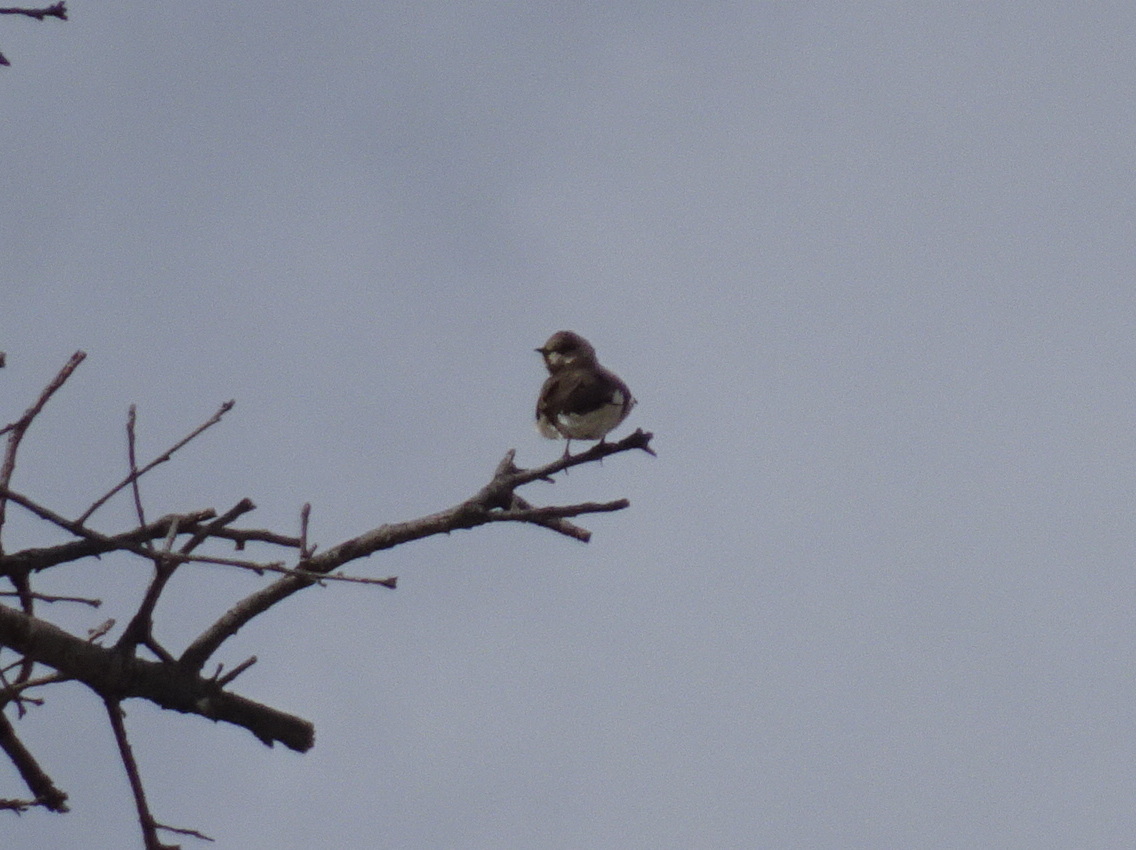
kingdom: Animalia
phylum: Chordata
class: Aves
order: Passeriformes
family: Hirundinidae
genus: Stelgidopteryx
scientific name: Stelgidopteryx serripennis
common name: Northern rough-winged swallow
